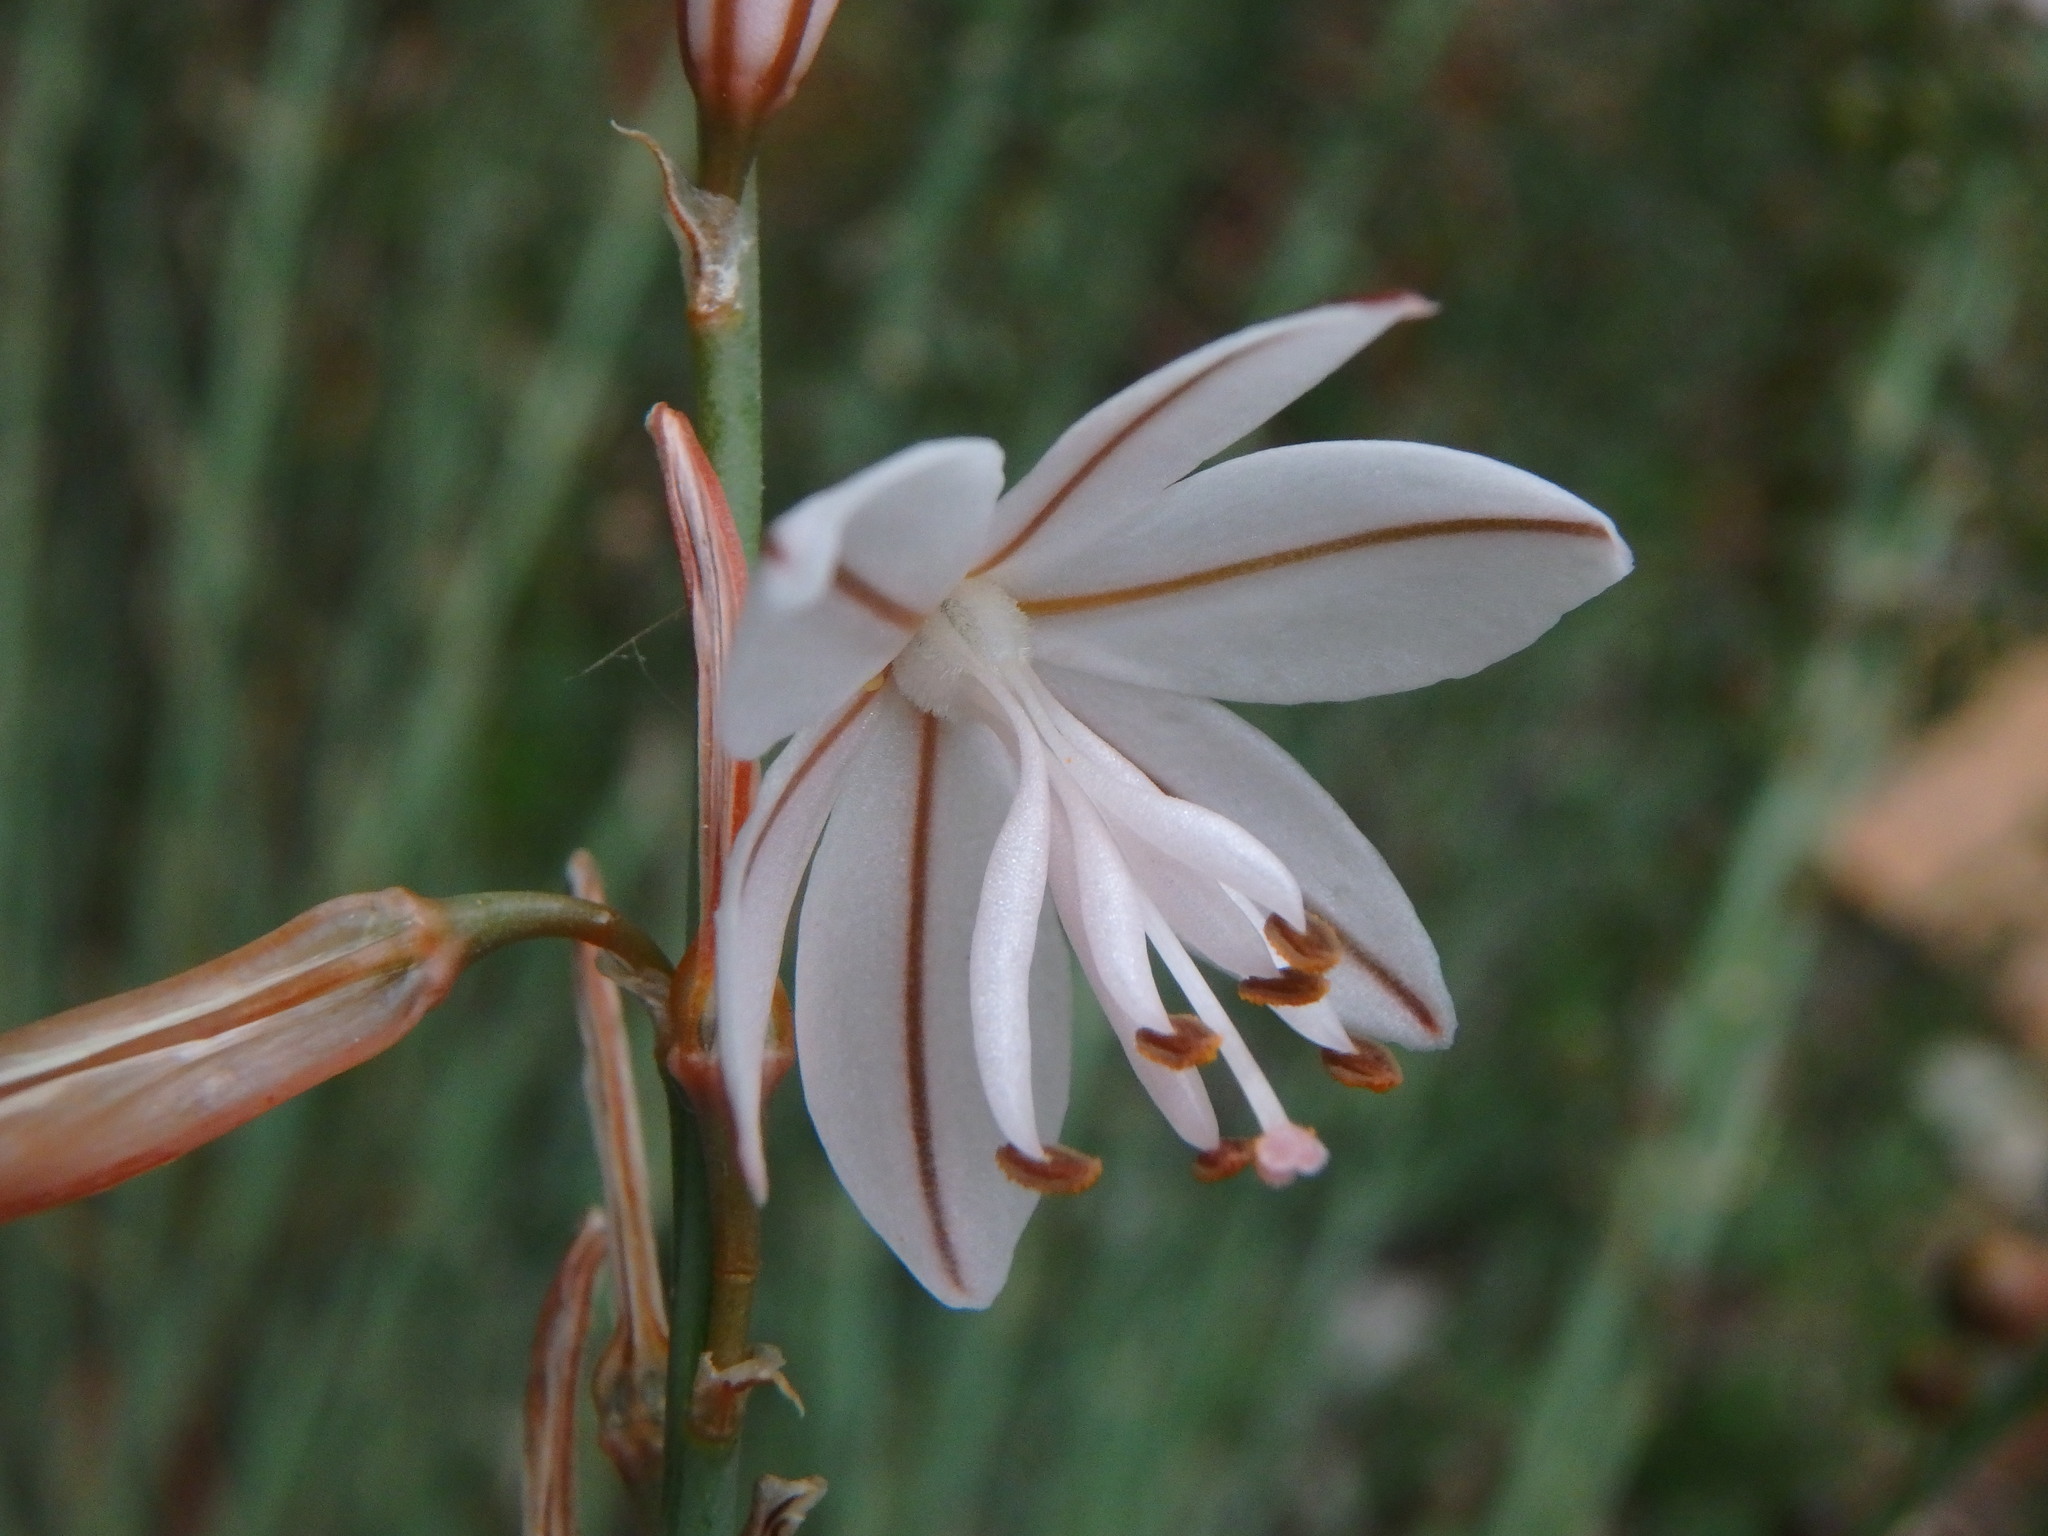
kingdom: Plantae
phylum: Tracheophyta
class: Liliopsida
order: Asparagales
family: Asphodelaceae
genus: Asphodelus
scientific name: Asphodelus fistulosus
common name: Onionweed
